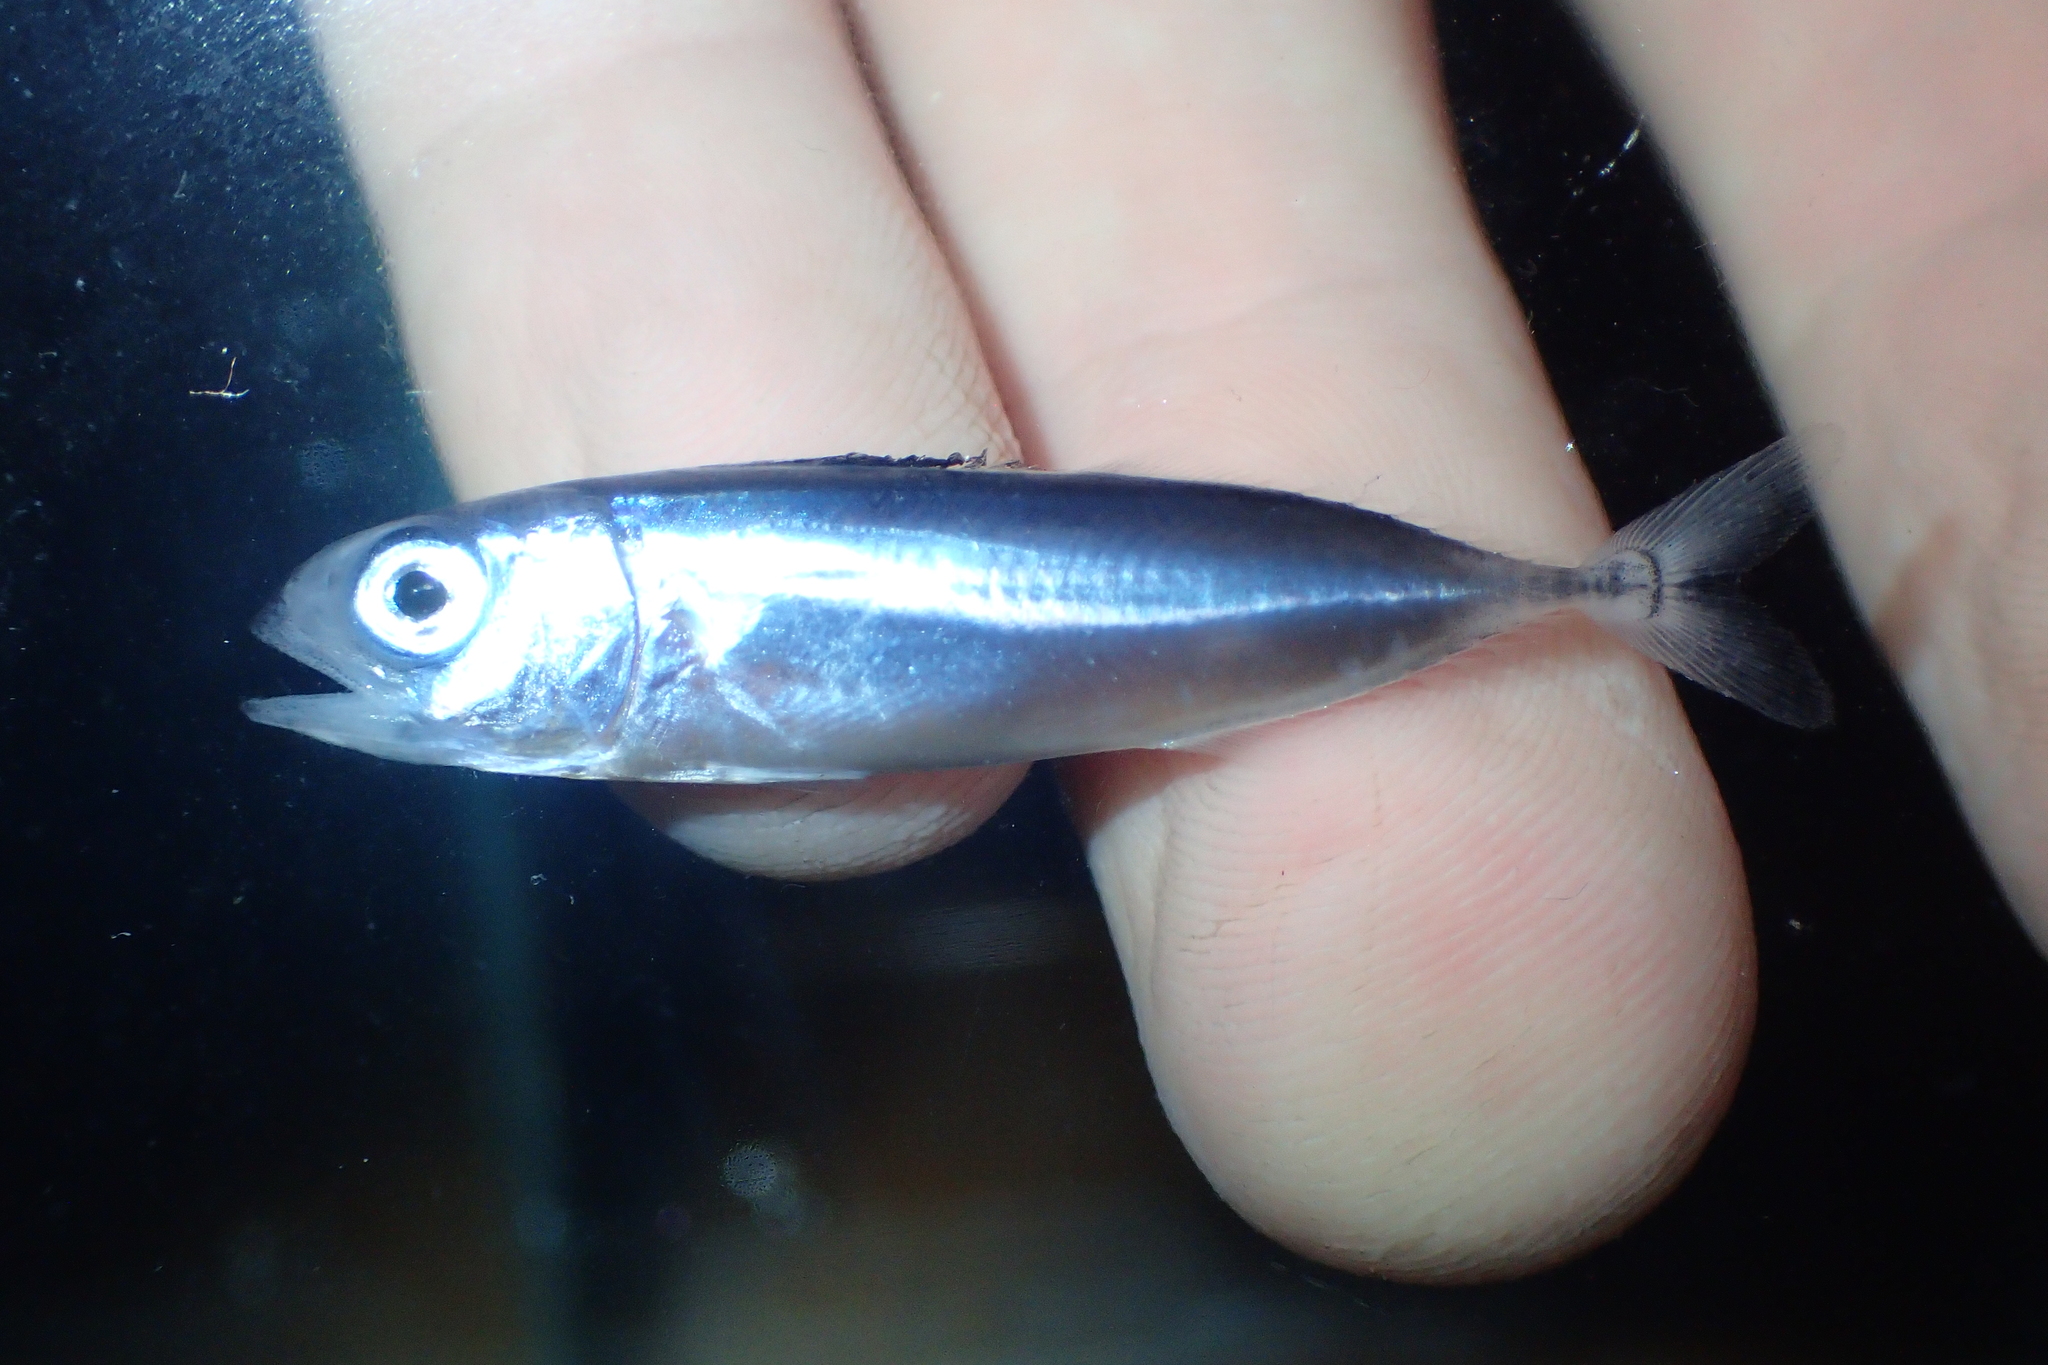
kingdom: Animalia
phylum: Chordata
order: Perciformes
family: Scombridae
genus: Thunnus
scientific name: Thunnus alalunga
